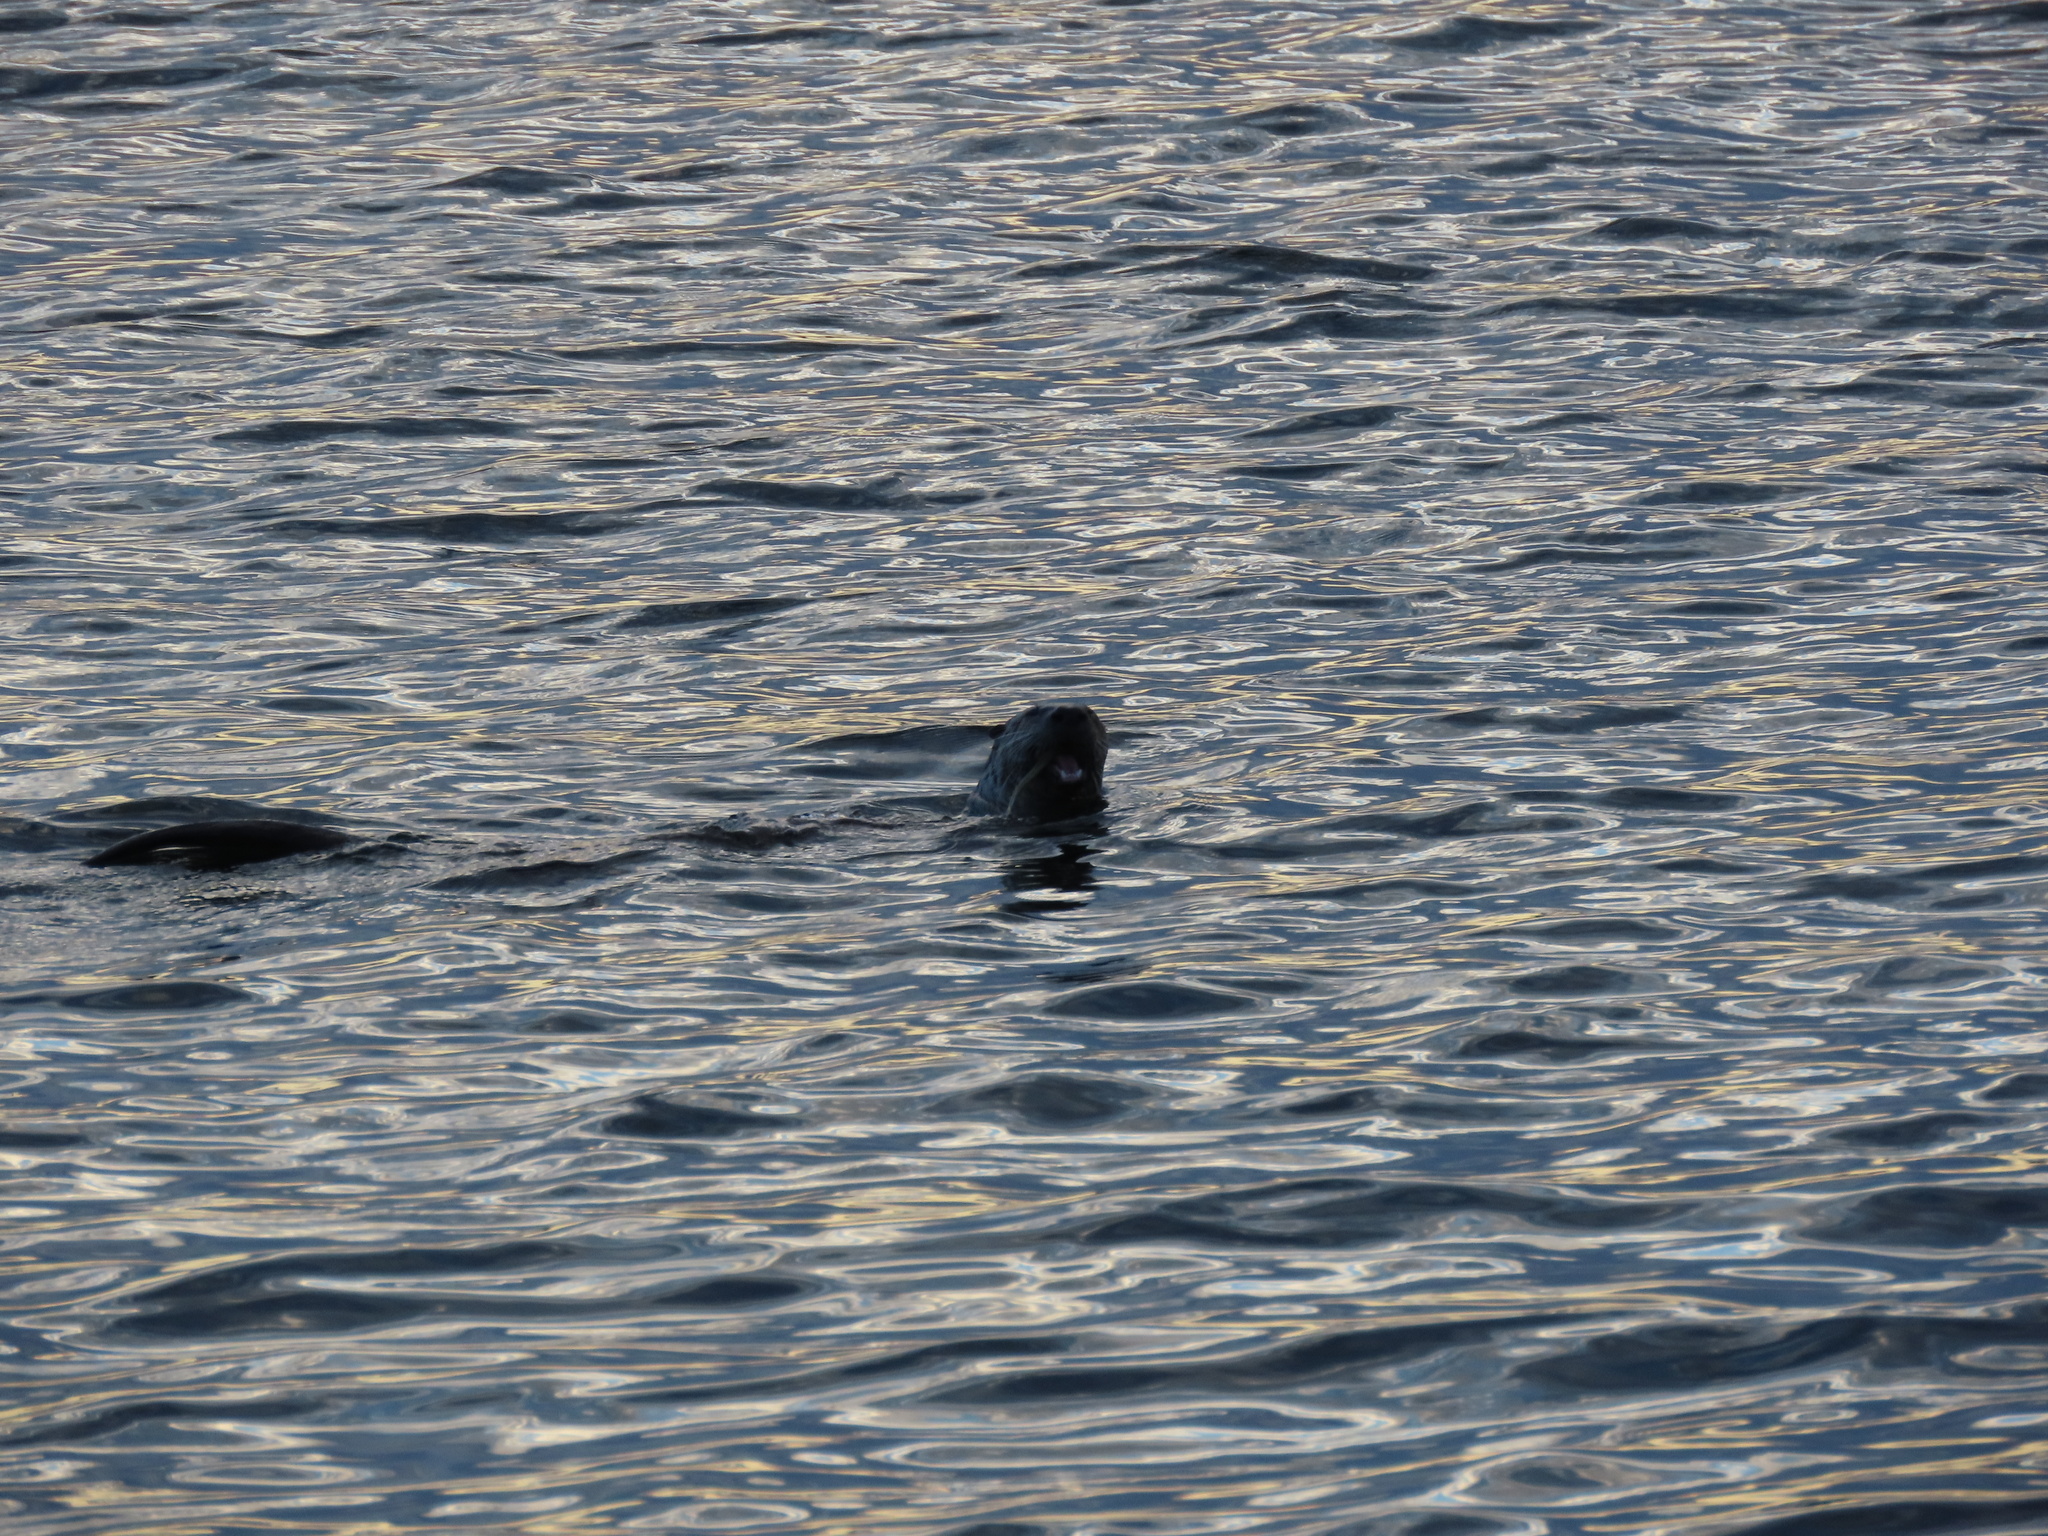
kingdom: Animalia
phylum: Chordata
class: Mammalia
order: Carnivora
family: Mustelidae
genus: Lontra
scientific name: Lontra canadensis
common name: North american river otter
